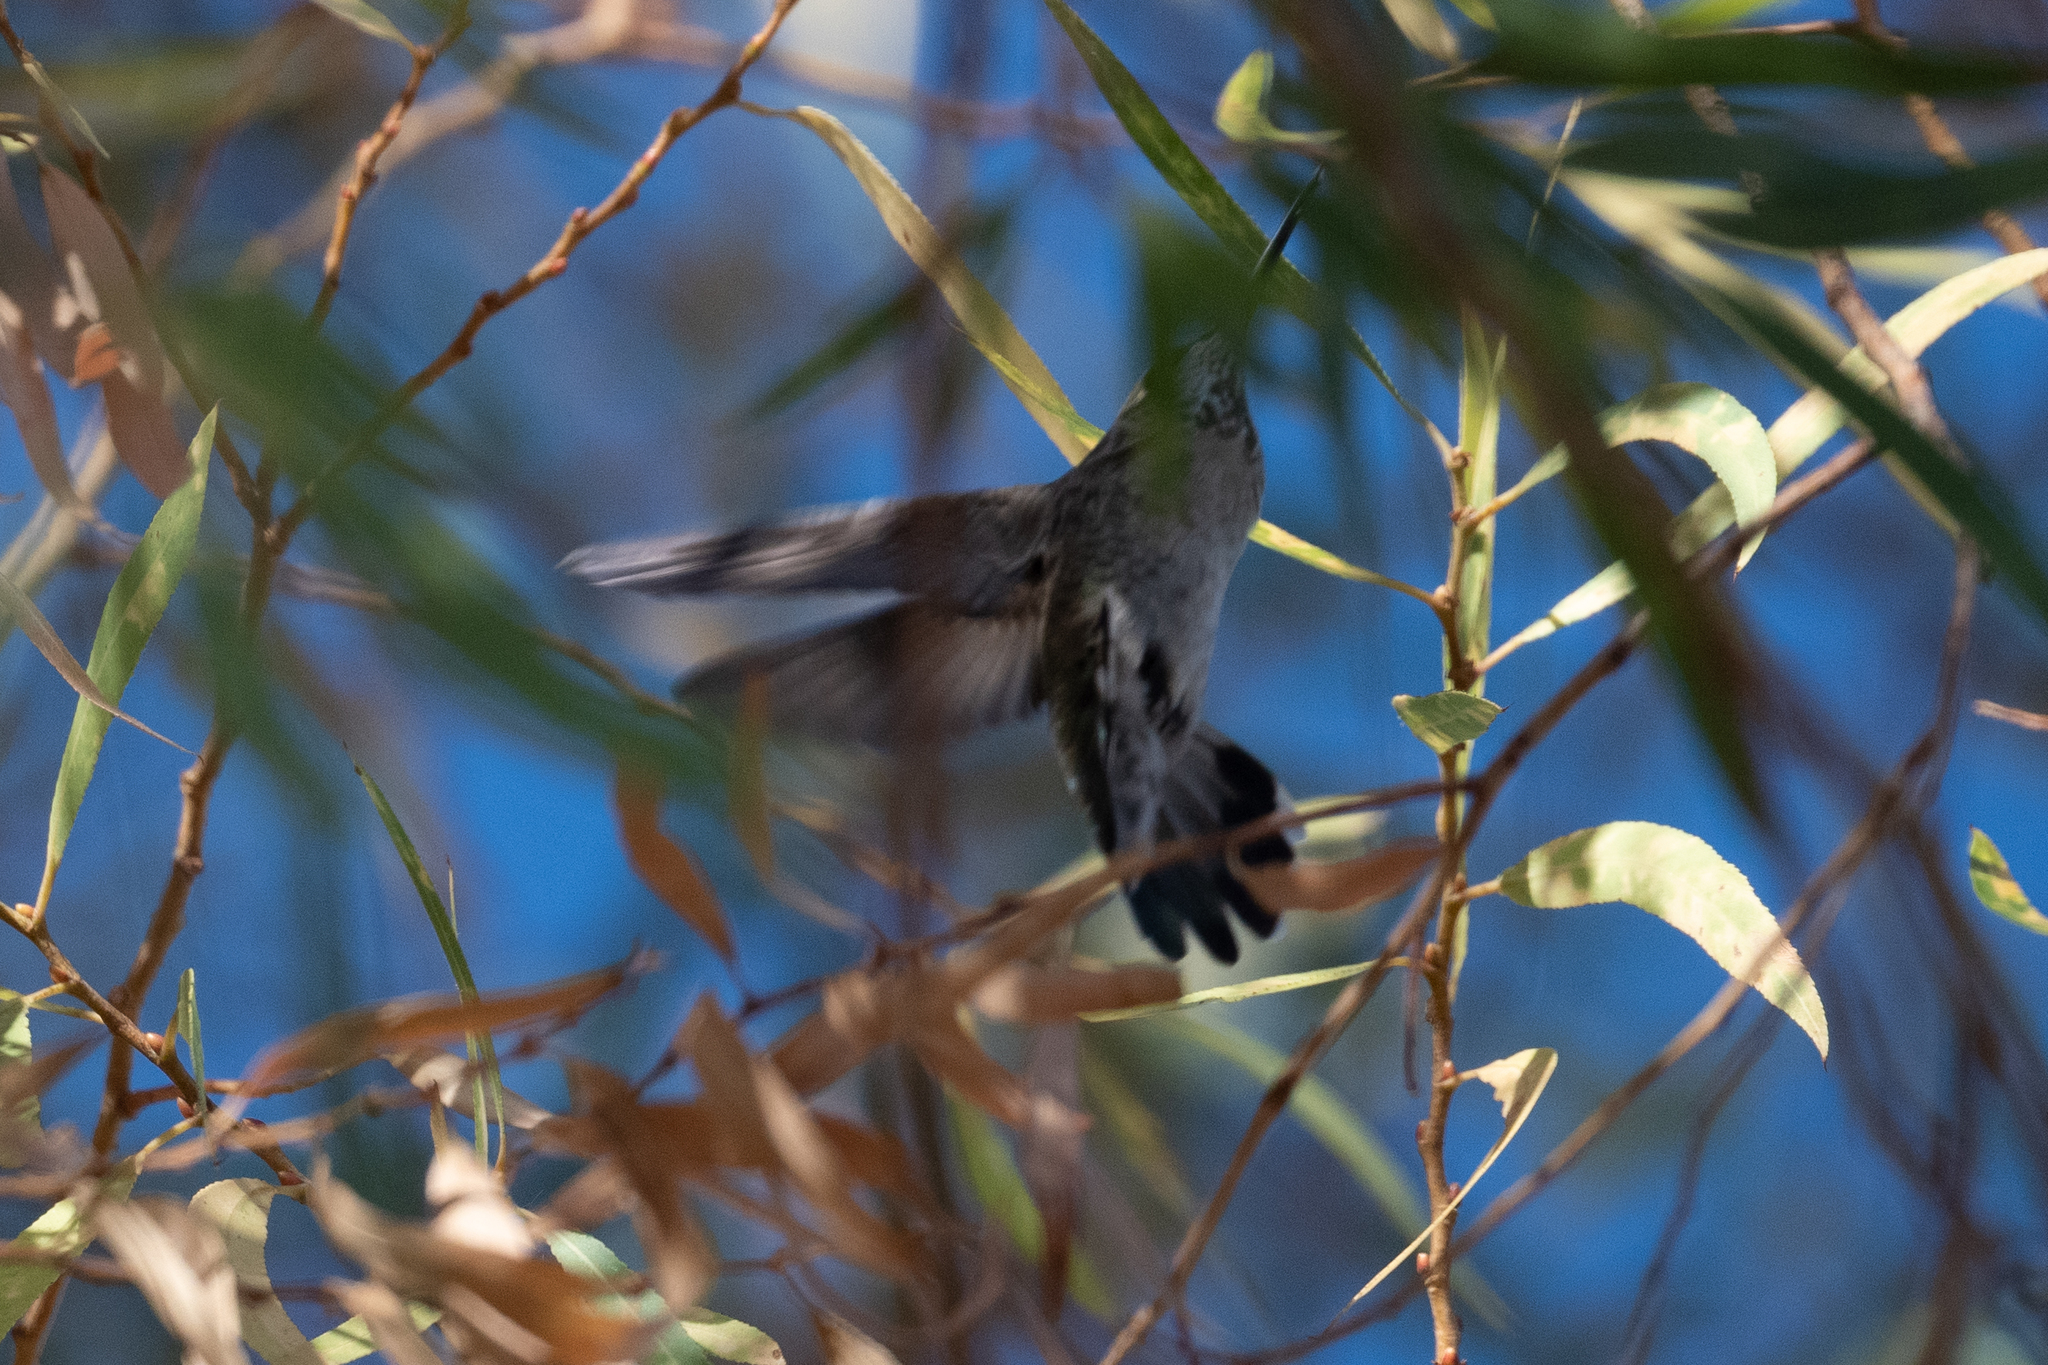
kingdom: Animalia
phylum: Chordata
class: Aves
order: Apodiformes
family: Trochilidae
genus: Calypte
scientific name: Calypte anna
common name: Anna's hummingbird
